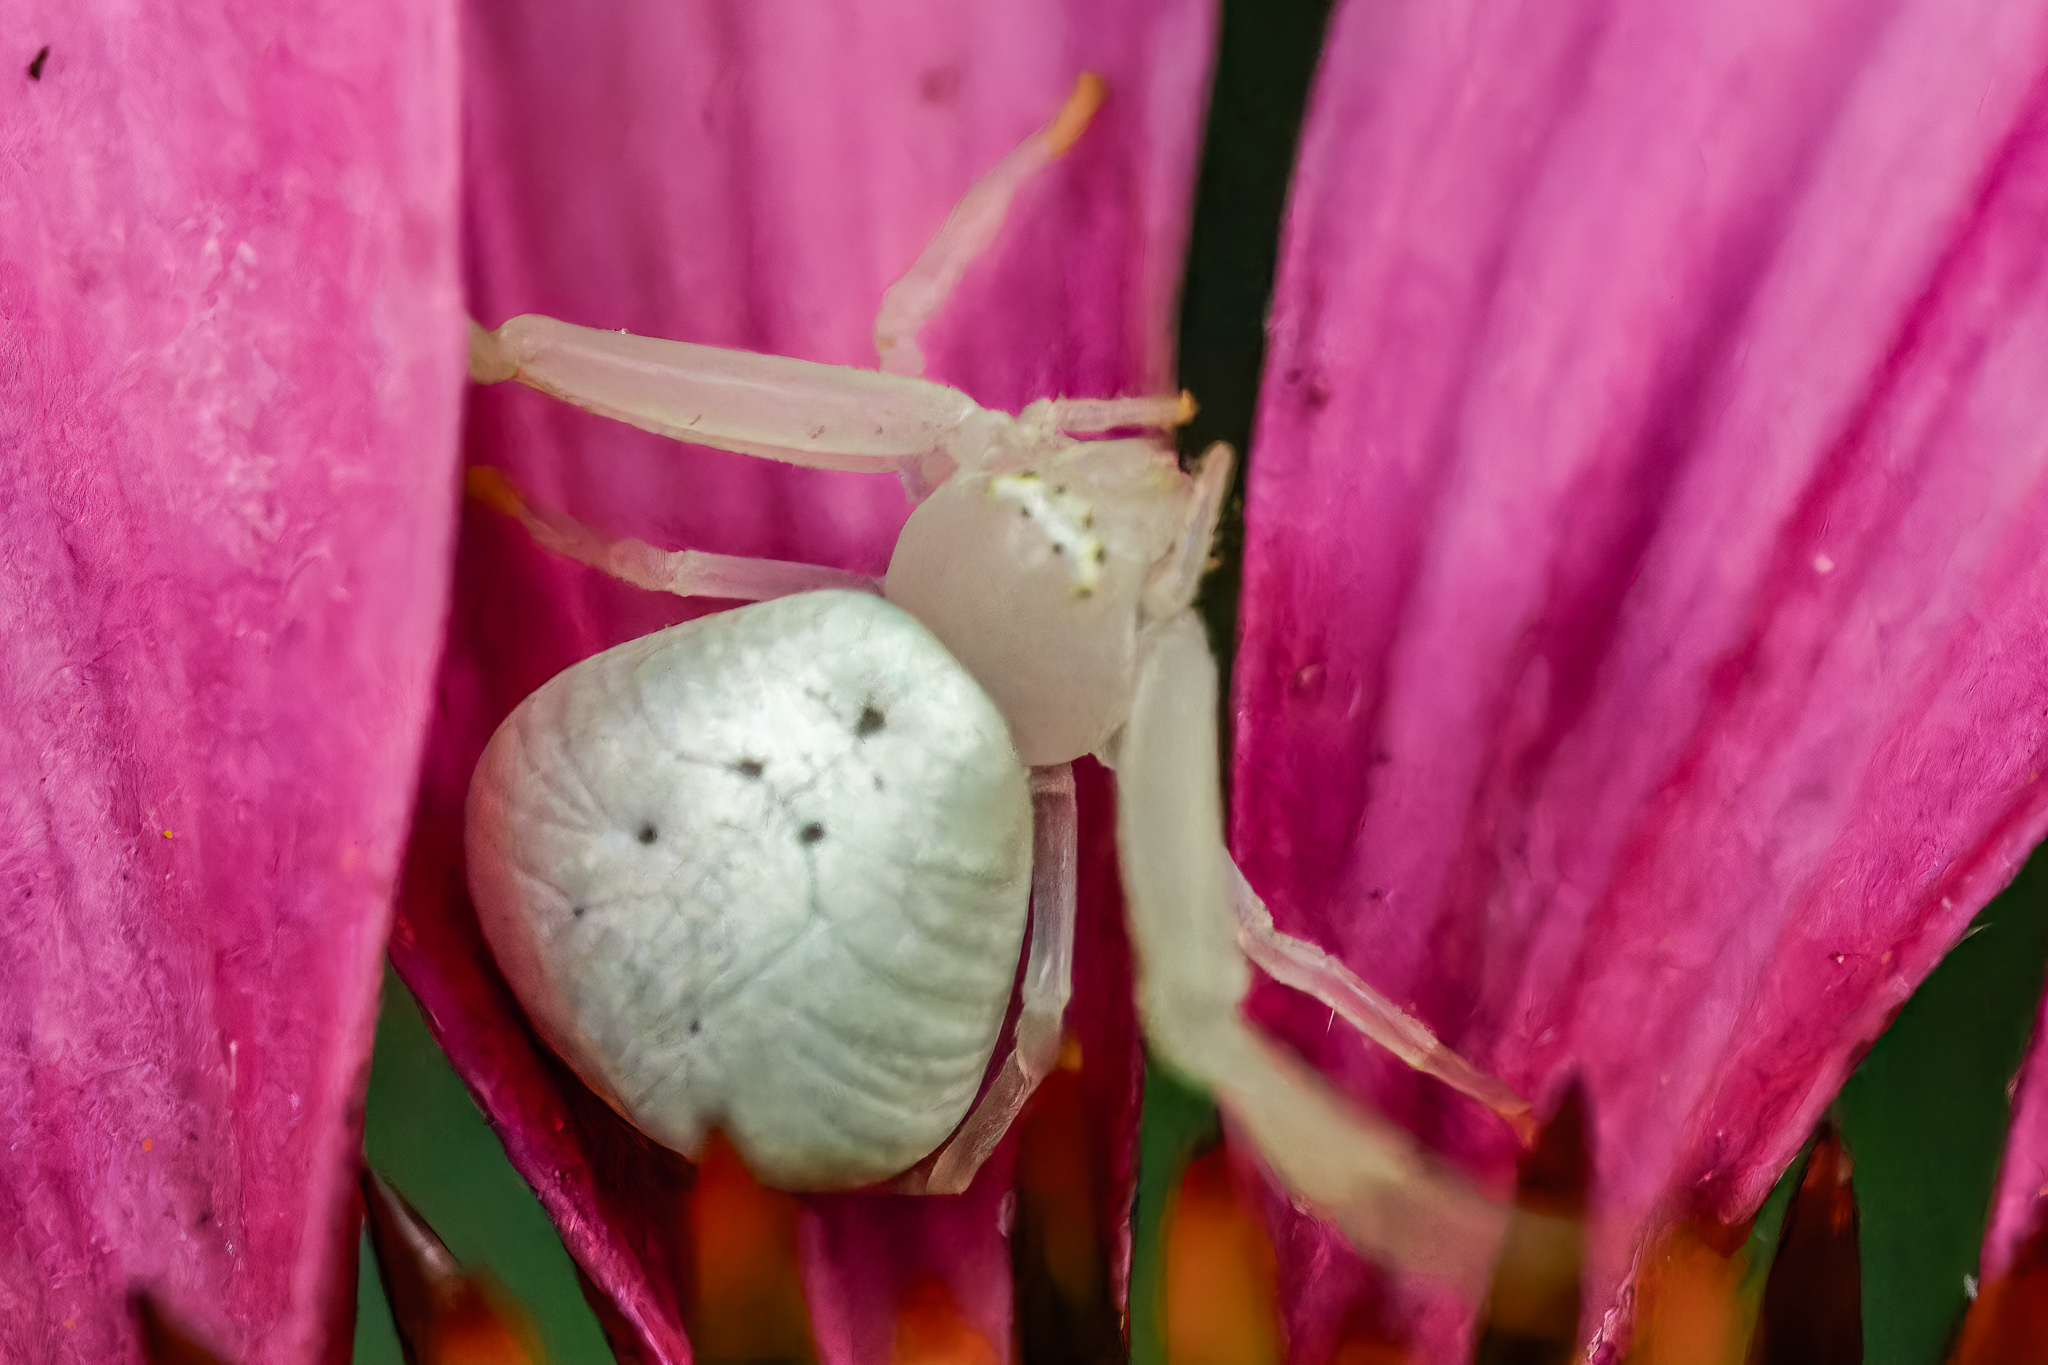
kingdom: Animalia
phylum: Arthropoda
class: Arachnida
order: Araneae
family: Thomisidae
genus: Misumessus
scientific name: Misumessus oblongus
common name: American green crab spider
